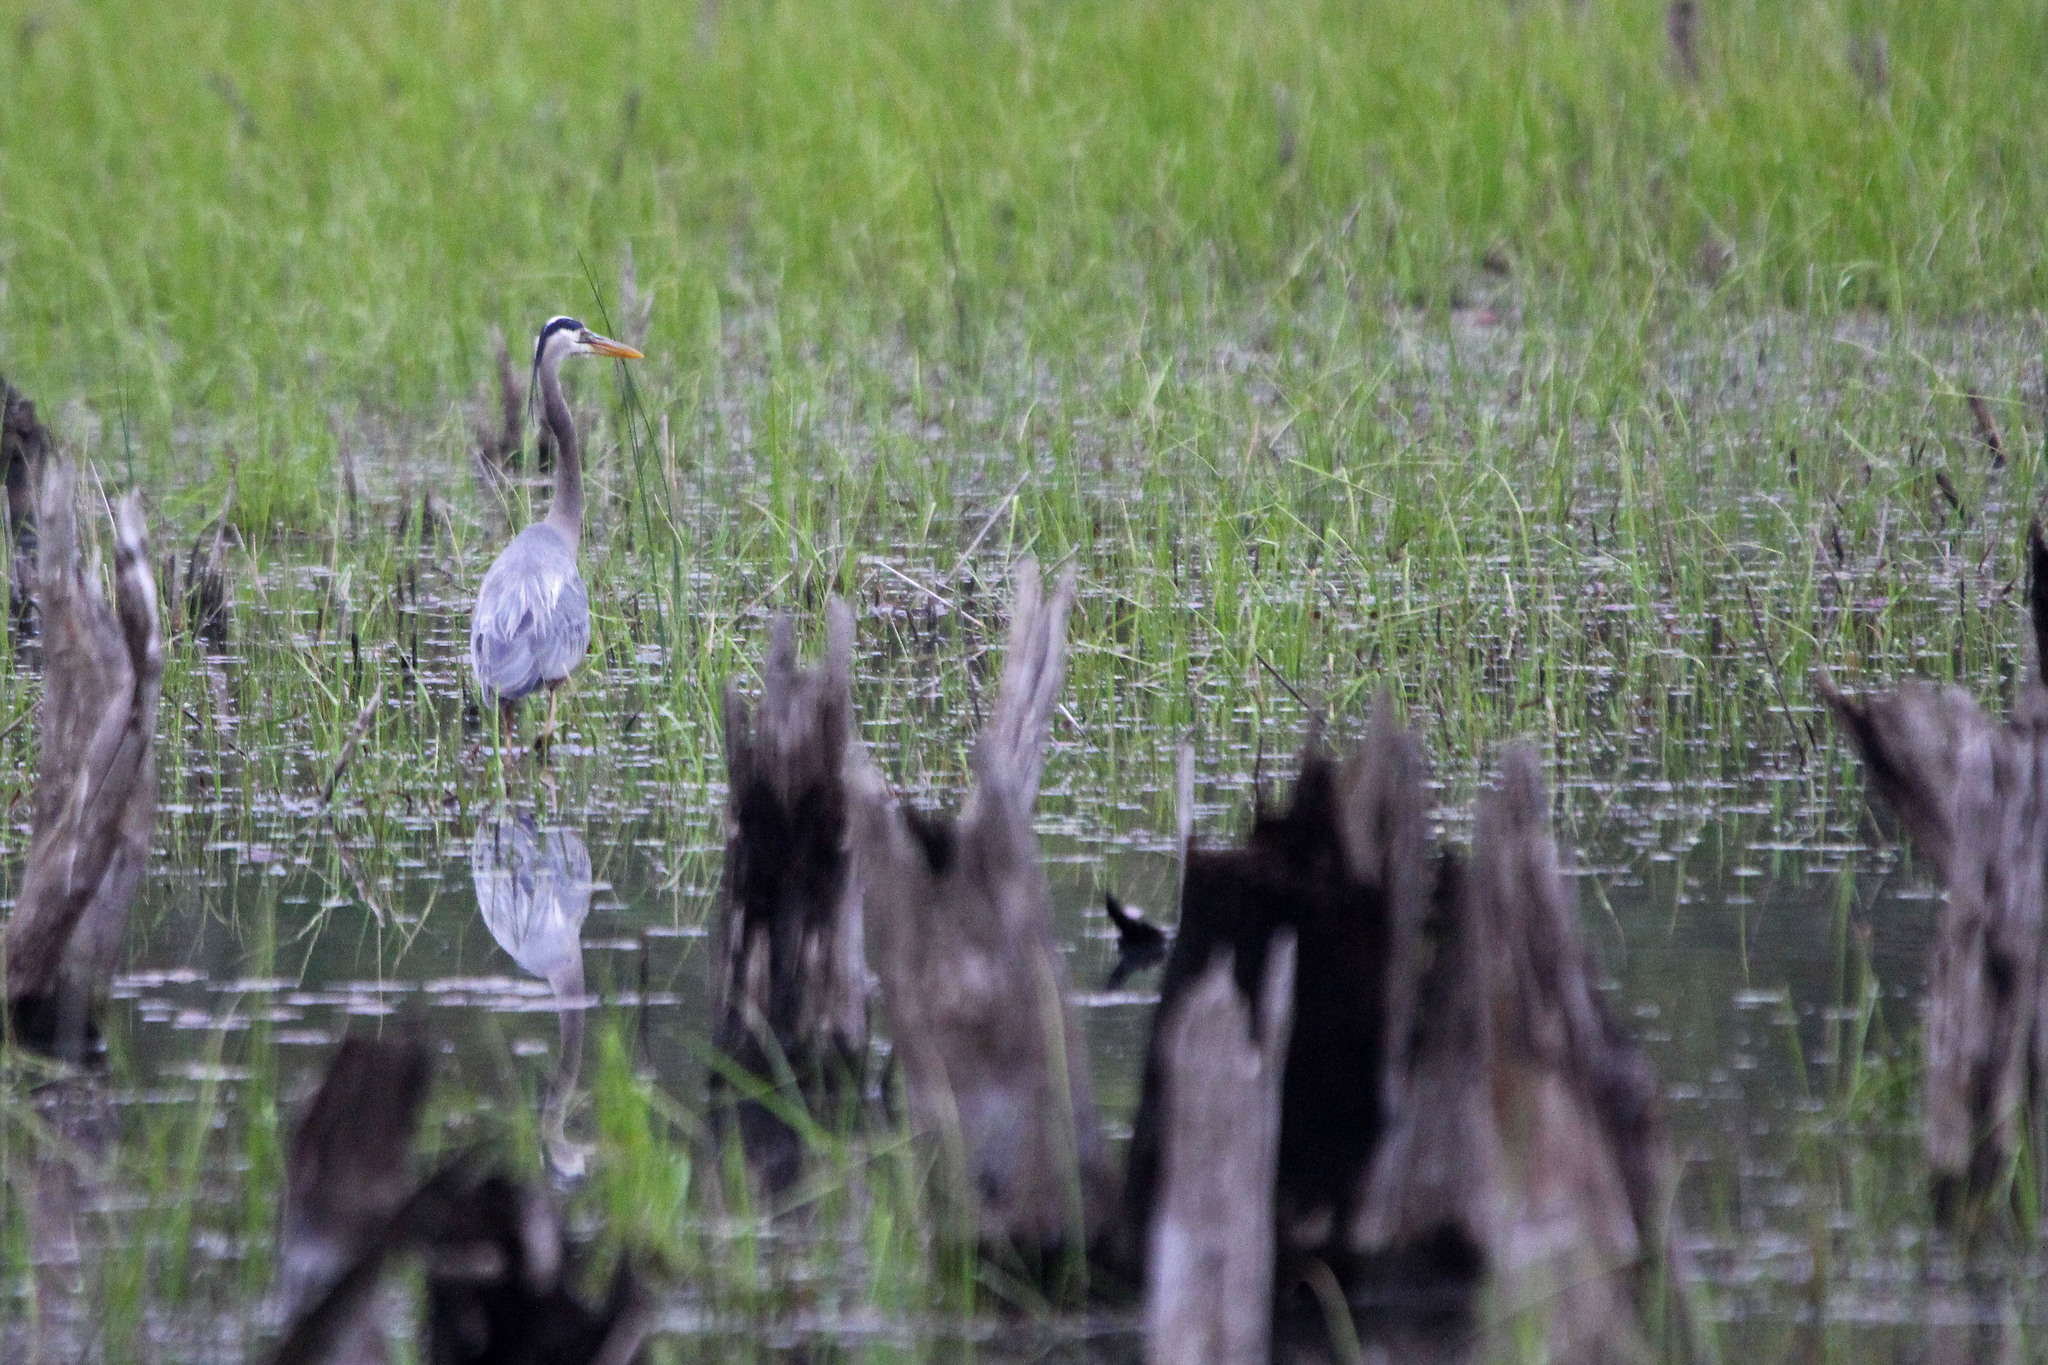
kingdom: Animalia
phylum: Chordata
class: Aves
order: Pelecaniformes
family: Ardeidae
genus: Ardea
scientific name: Ardea herodias
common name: Great blue heron
